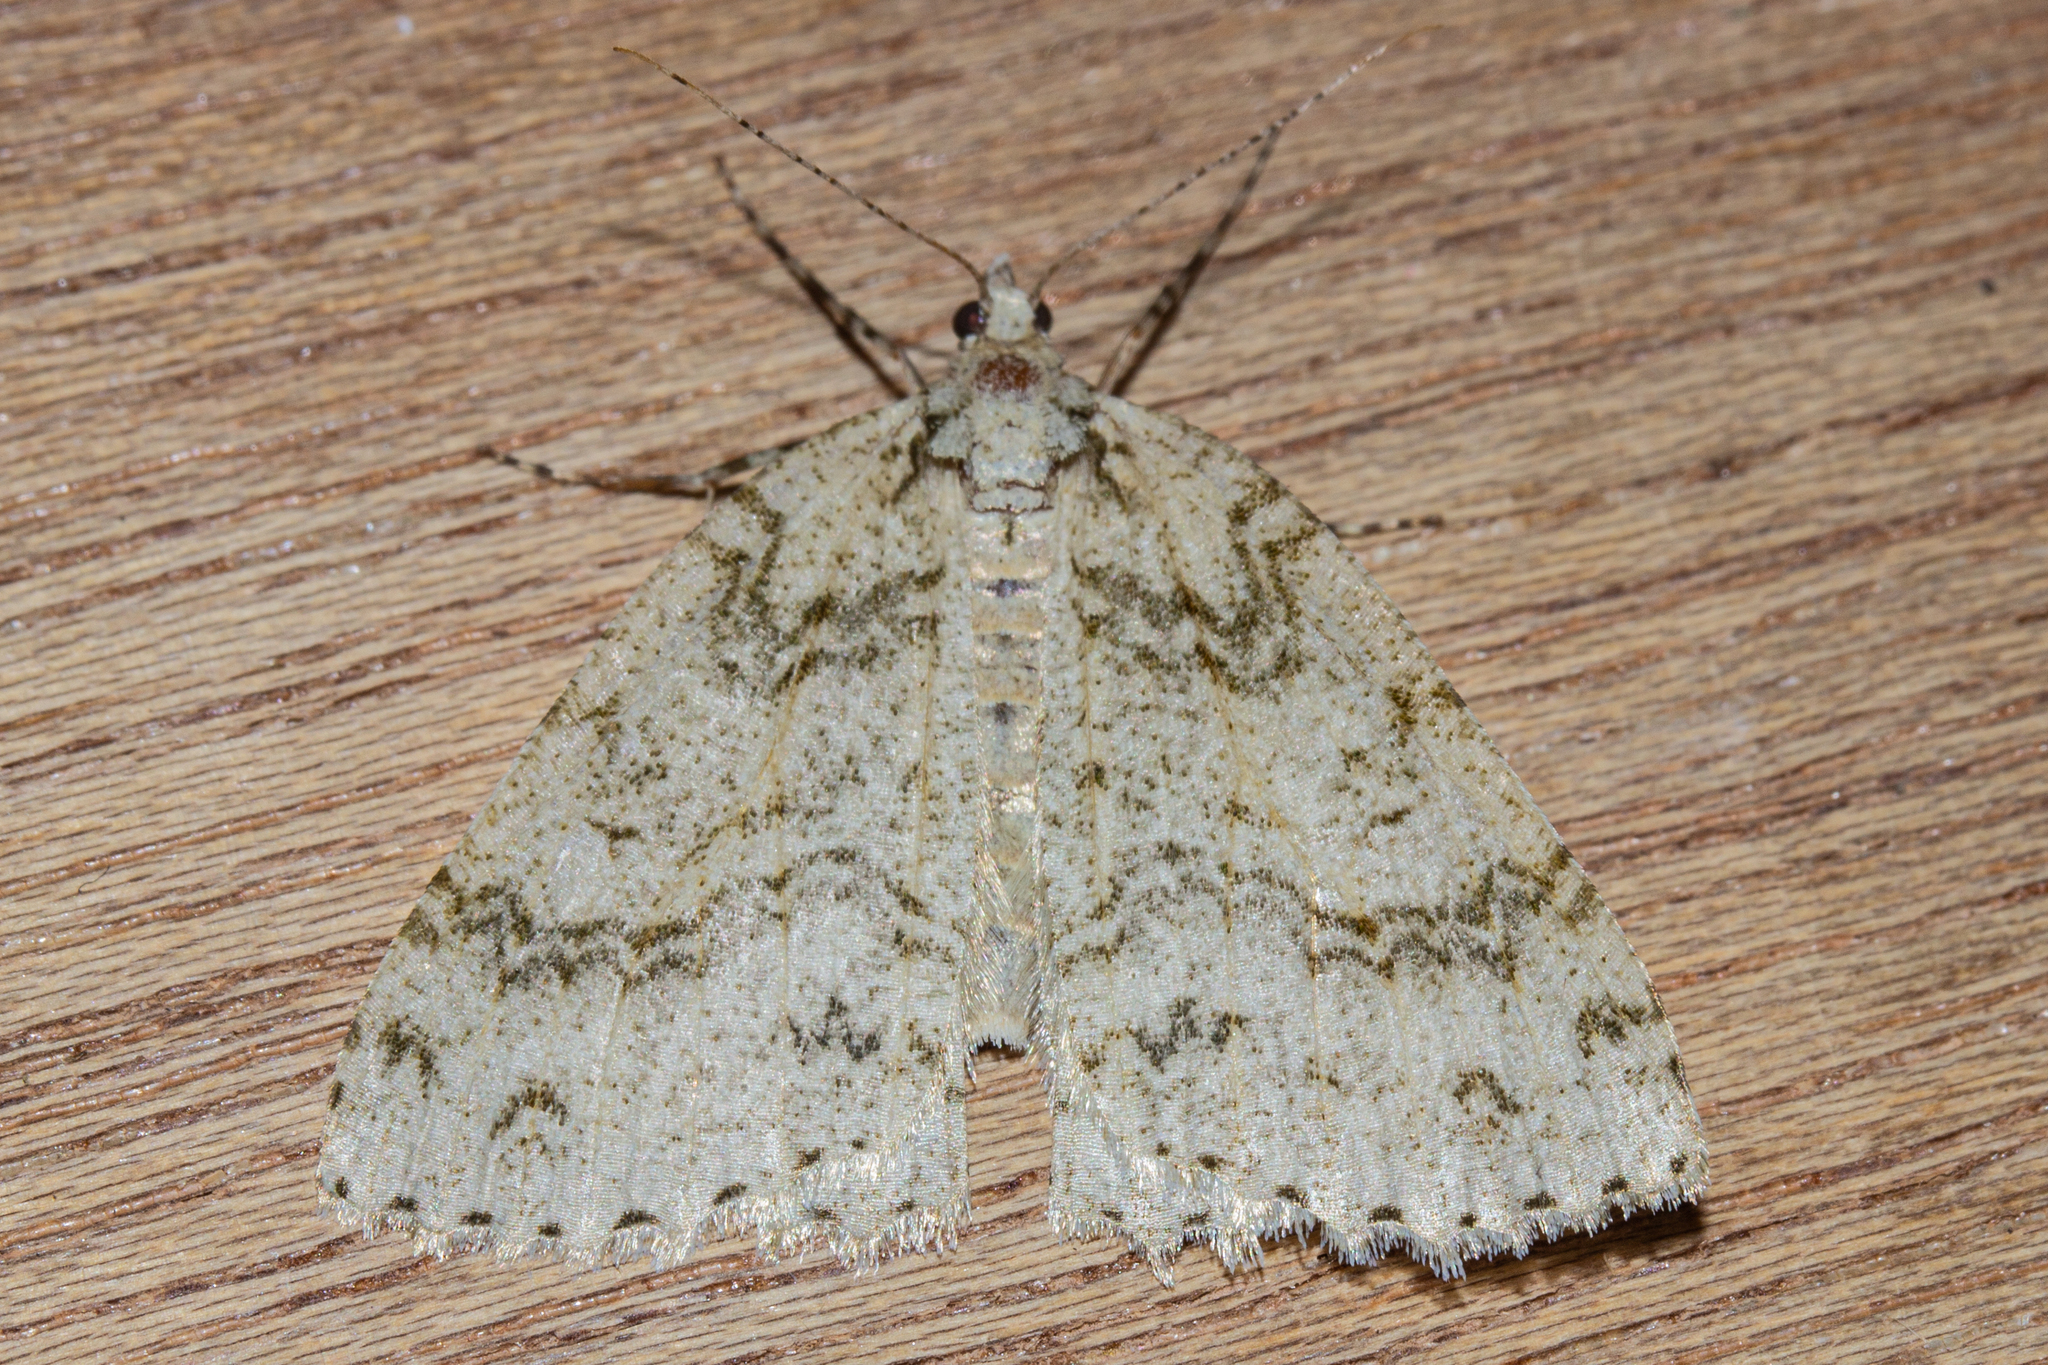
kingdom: Animalia
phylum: Arthropoda
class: Insecta
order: Lepidoptera
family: Geometridae
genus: Pseudocoremia
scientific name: Pseudocoremia rudisata
